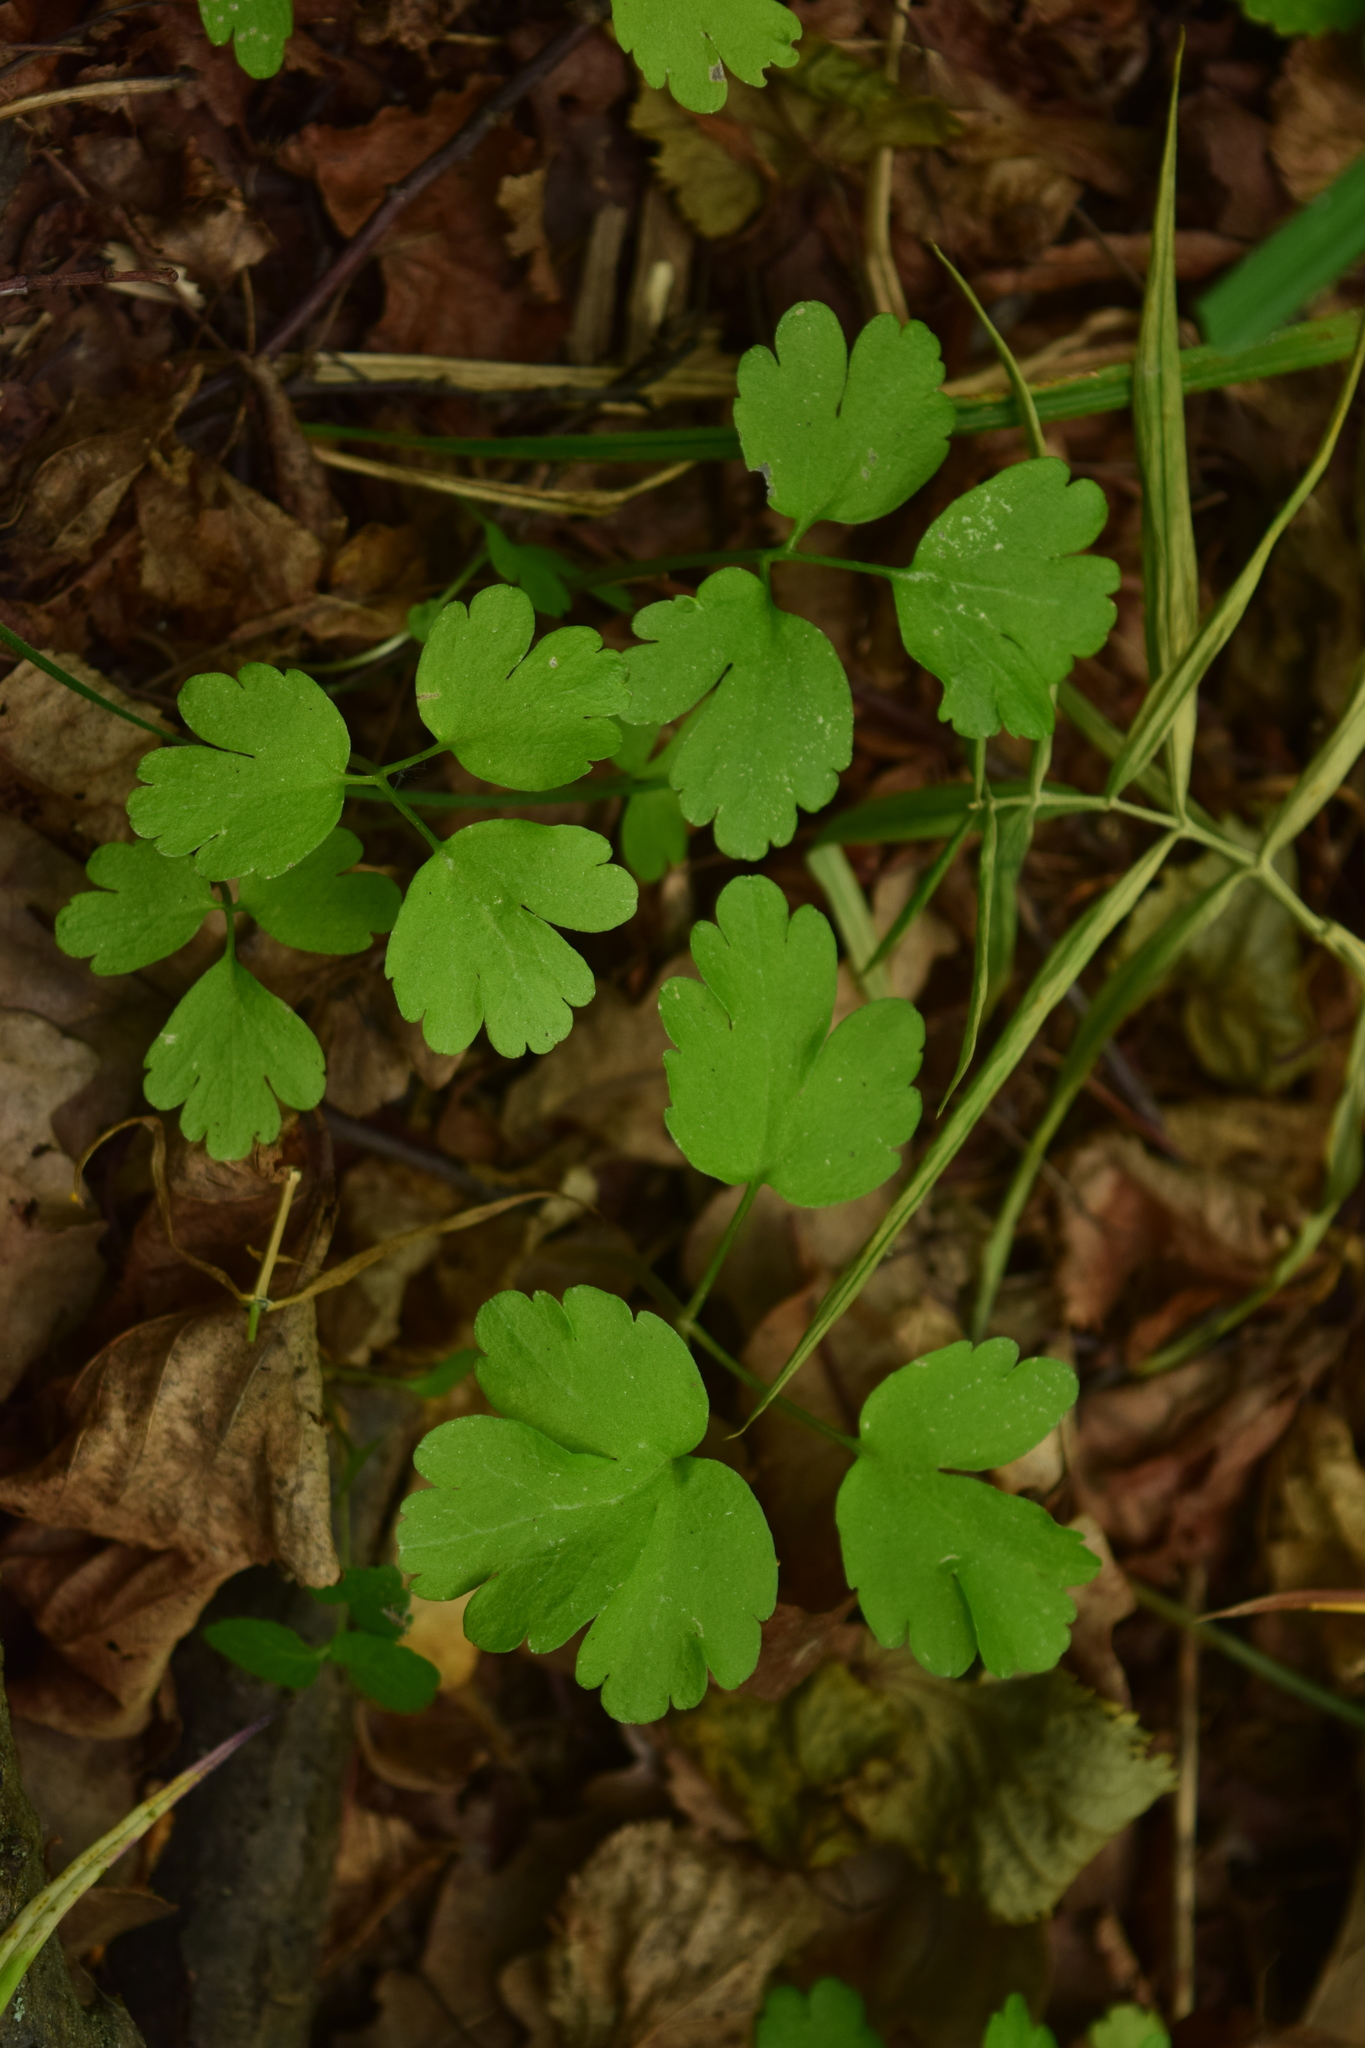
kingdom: Plantae
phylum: Tracheophyta
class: Magnoliopsida
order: Dipsacales
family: Viburnaceae
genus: Adoxa
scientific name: Adoxa moschatellina
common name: Moschatel
